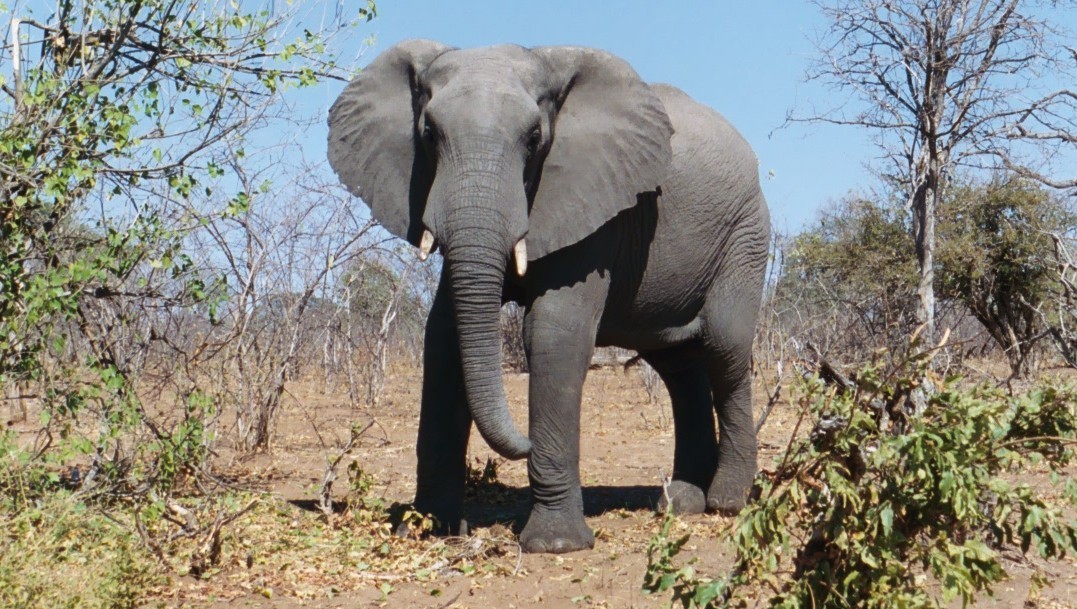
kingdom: Animalia
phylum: Chordata
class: Mammalia
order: Proboscidea
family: Elephantidae
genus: Loxodonta
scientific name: Loxodonta africana
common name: African elephant
